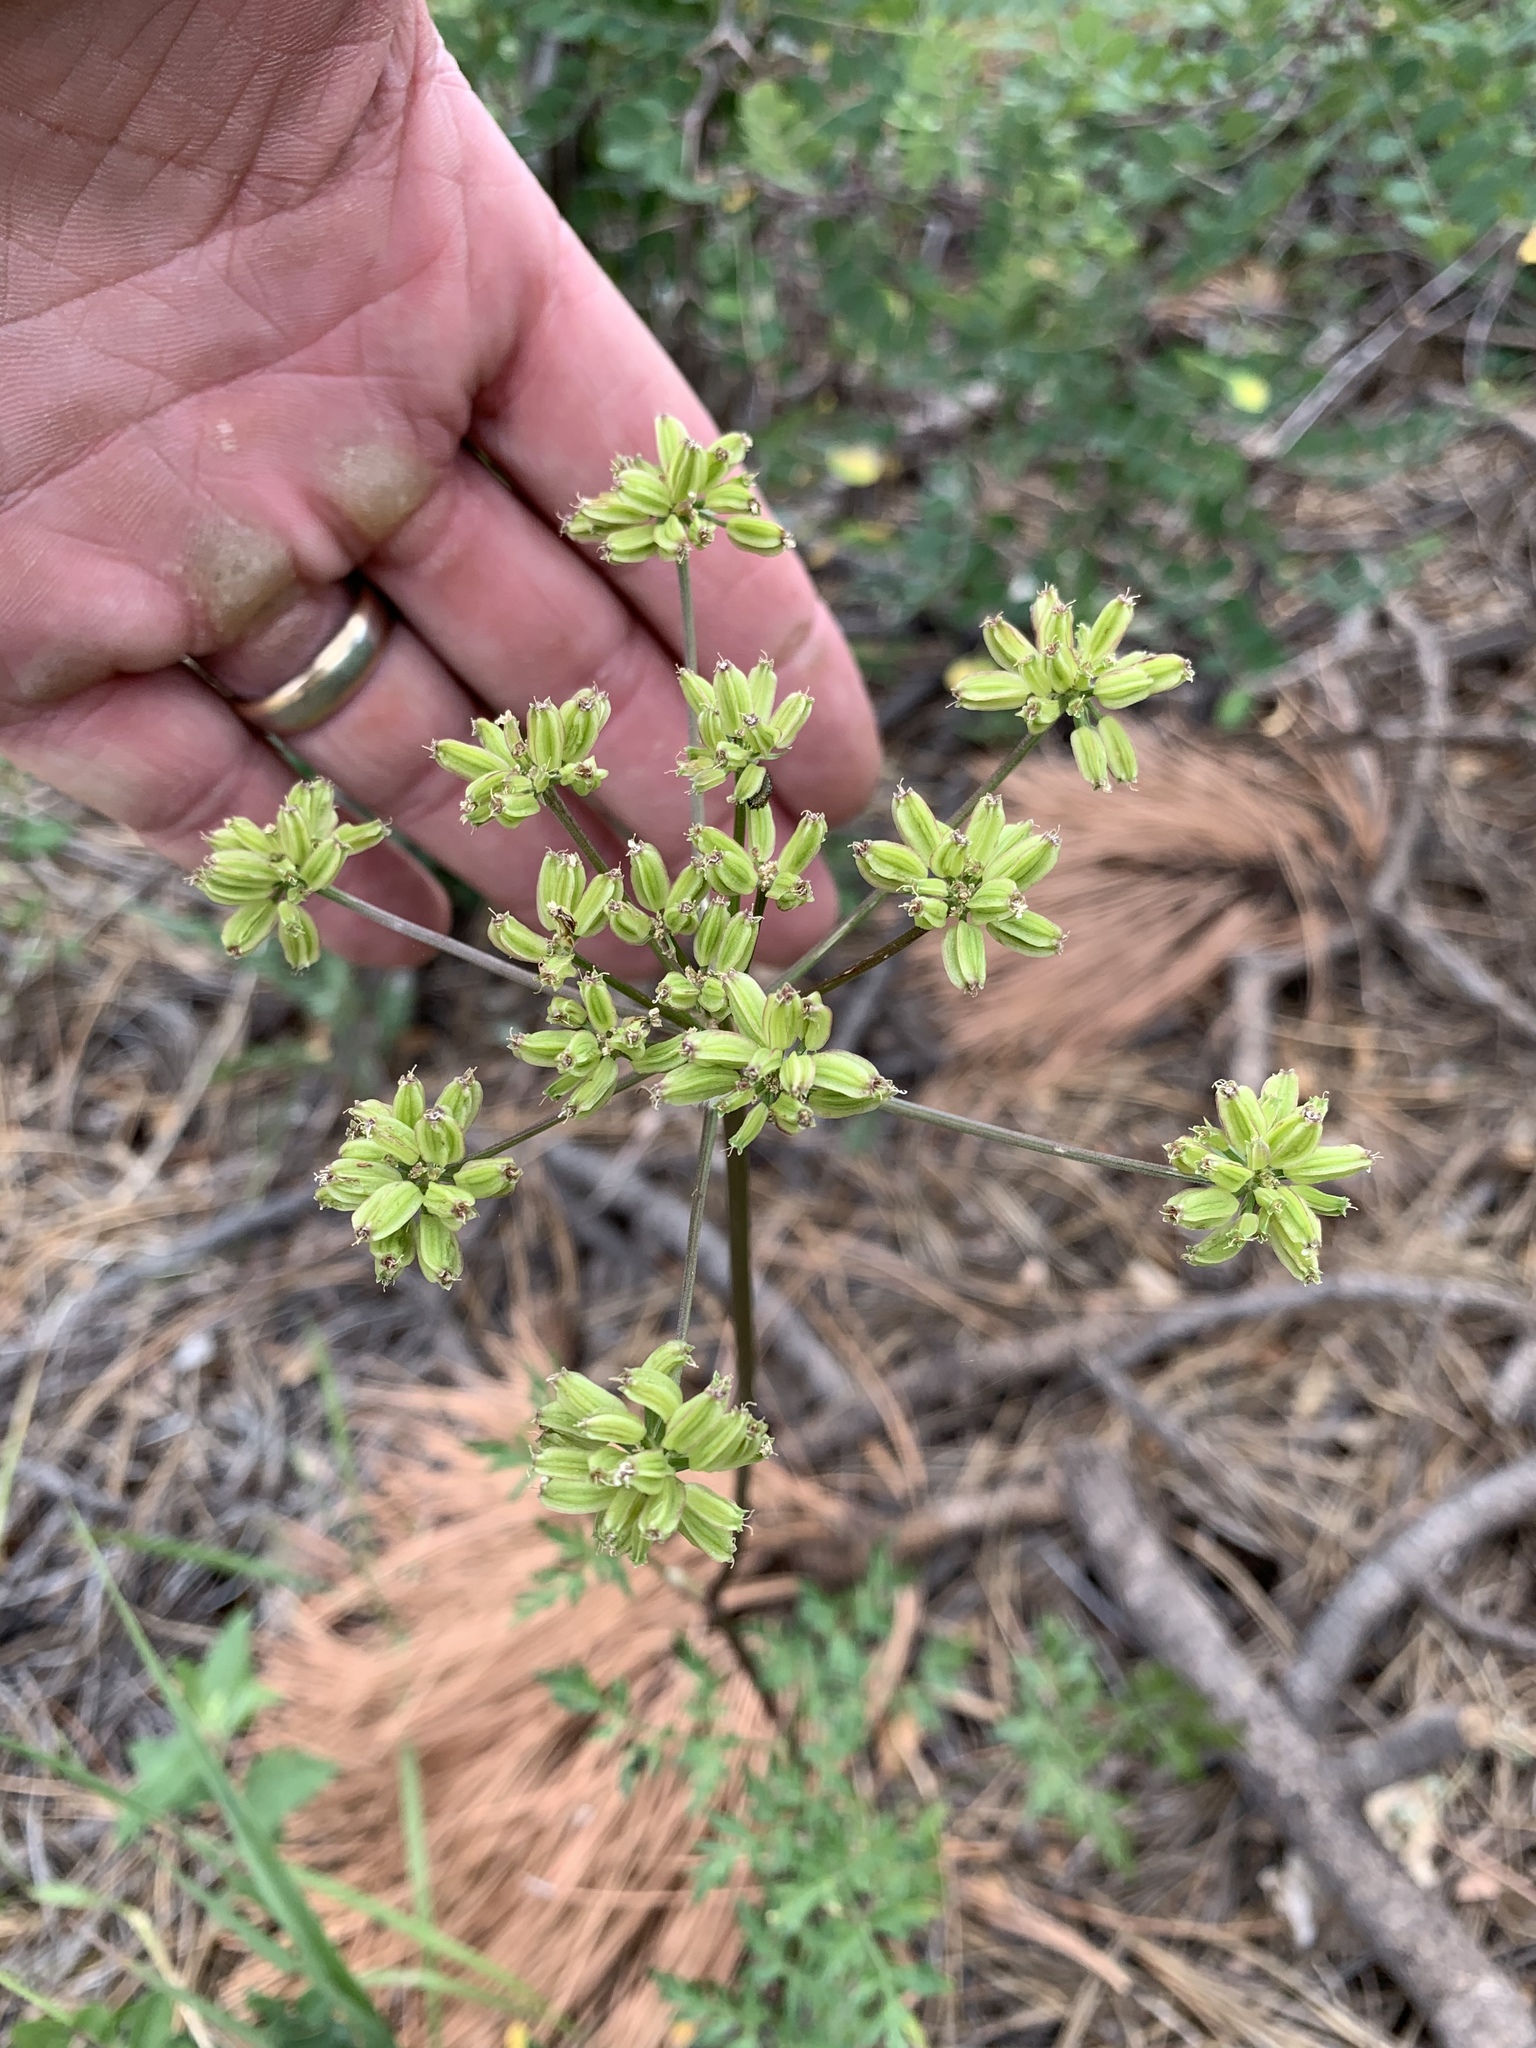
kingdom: Plantae
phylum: Tracheophyta
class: Magnoliopsida
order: Apiales
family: Apiaceae
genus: Pseudocymopterus
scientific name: Pseudocymopterus longiradiatus
